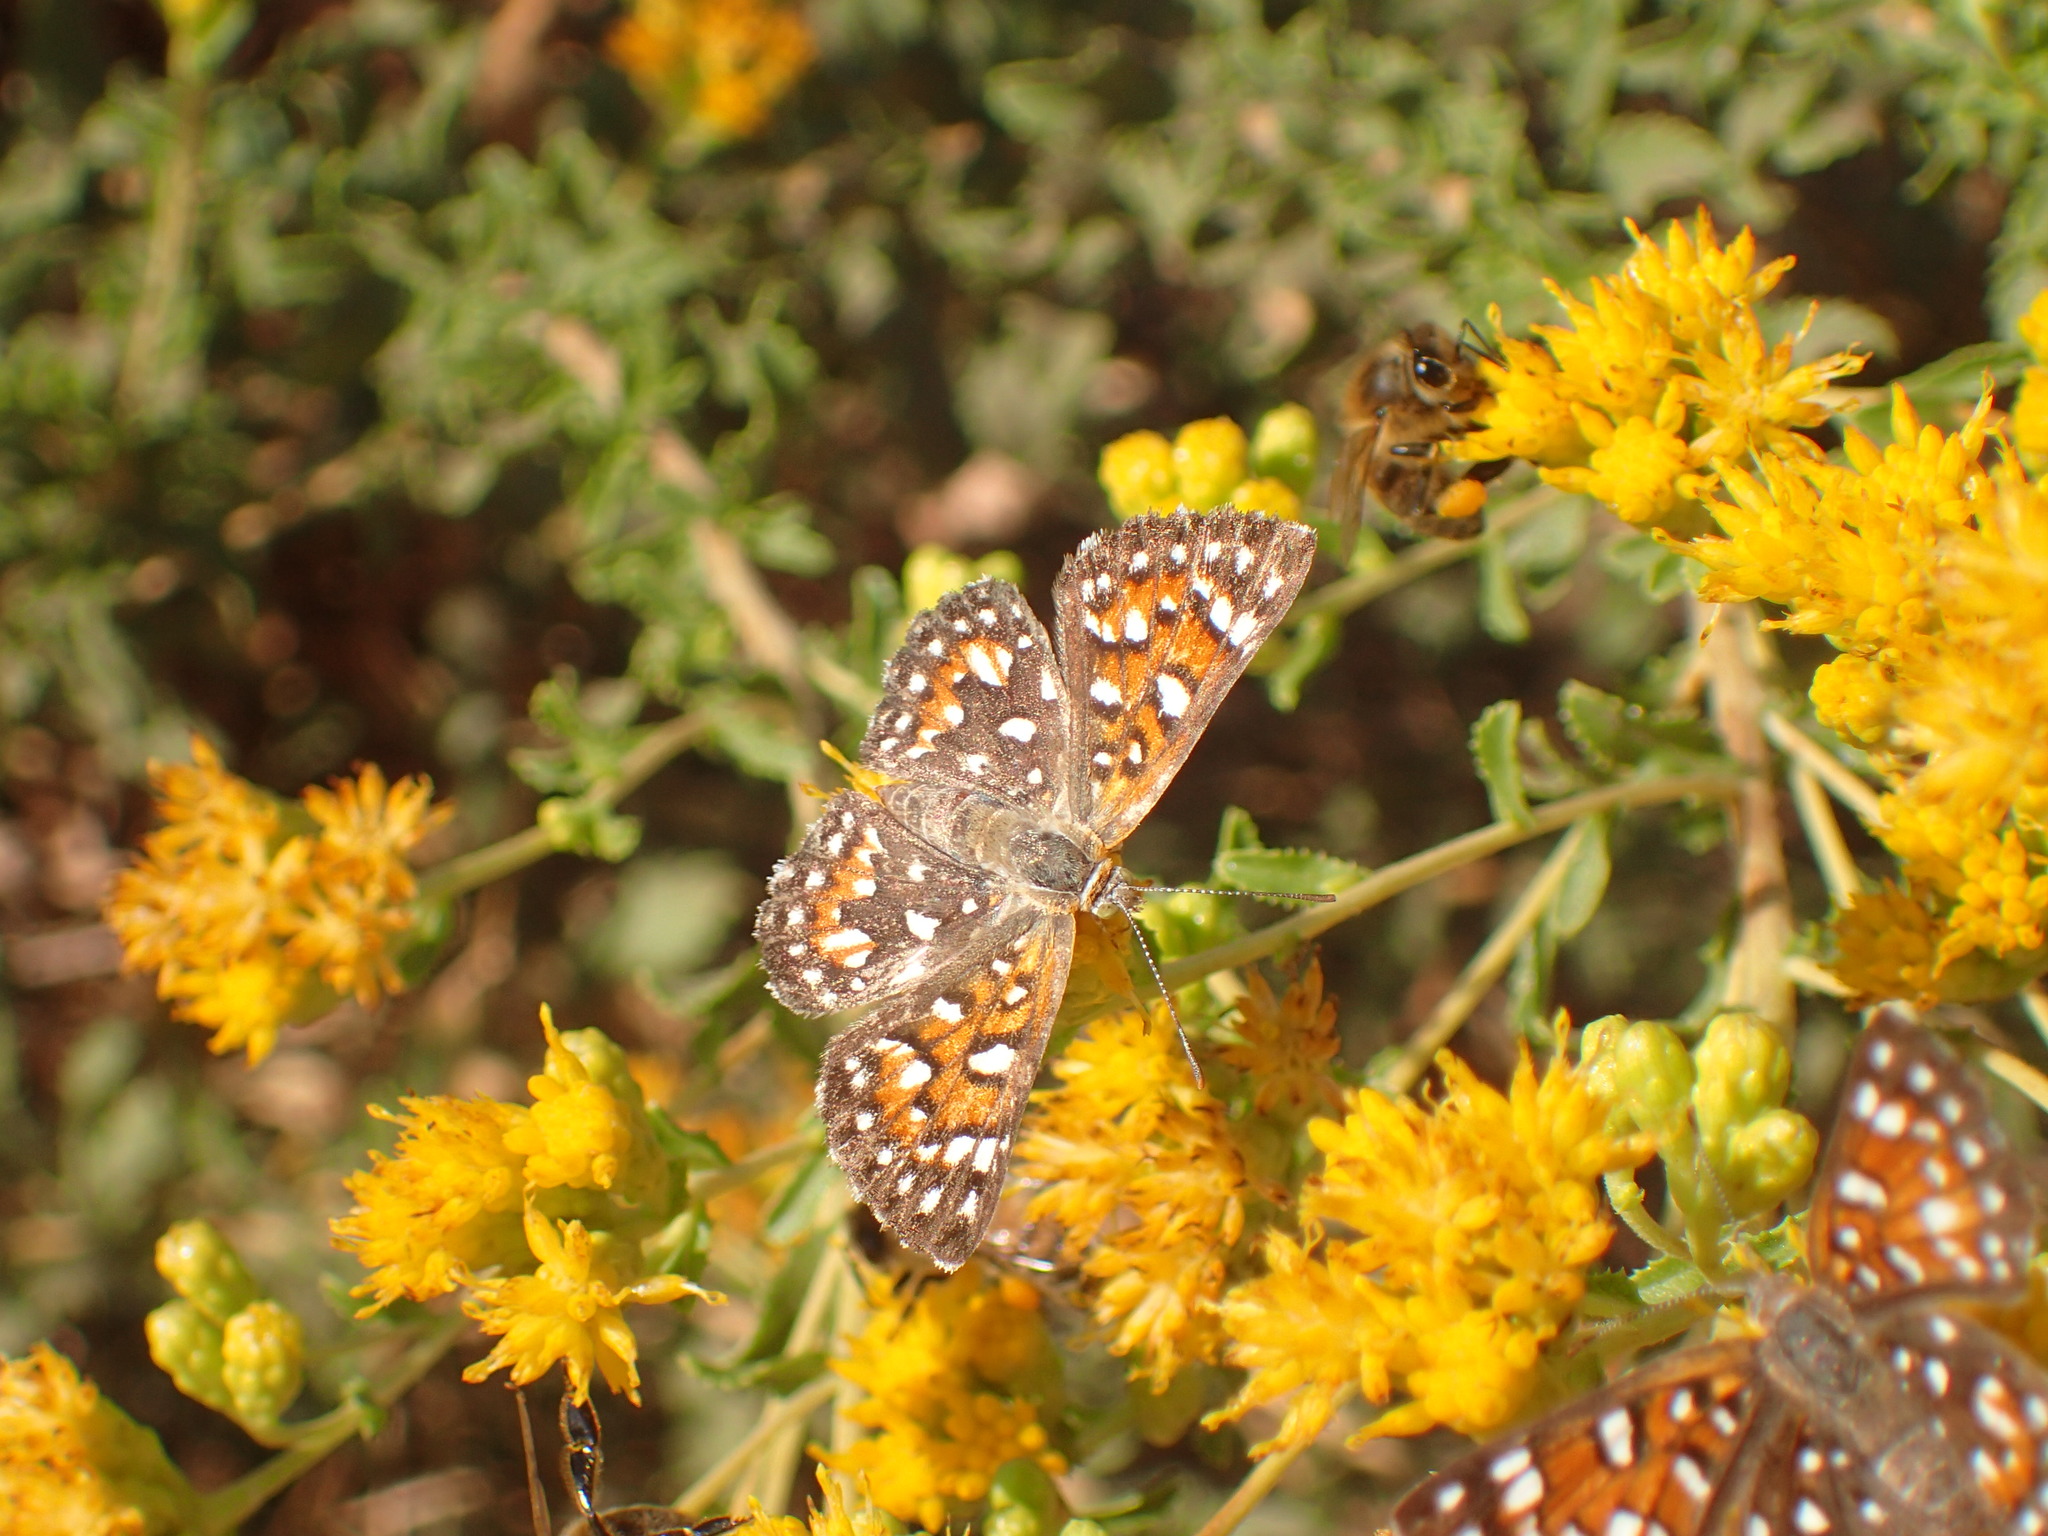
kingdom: Animalia
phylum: Arthropoda
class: Insecta
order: Lepidoptera
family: Riodinidae
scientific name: Riodinidae
